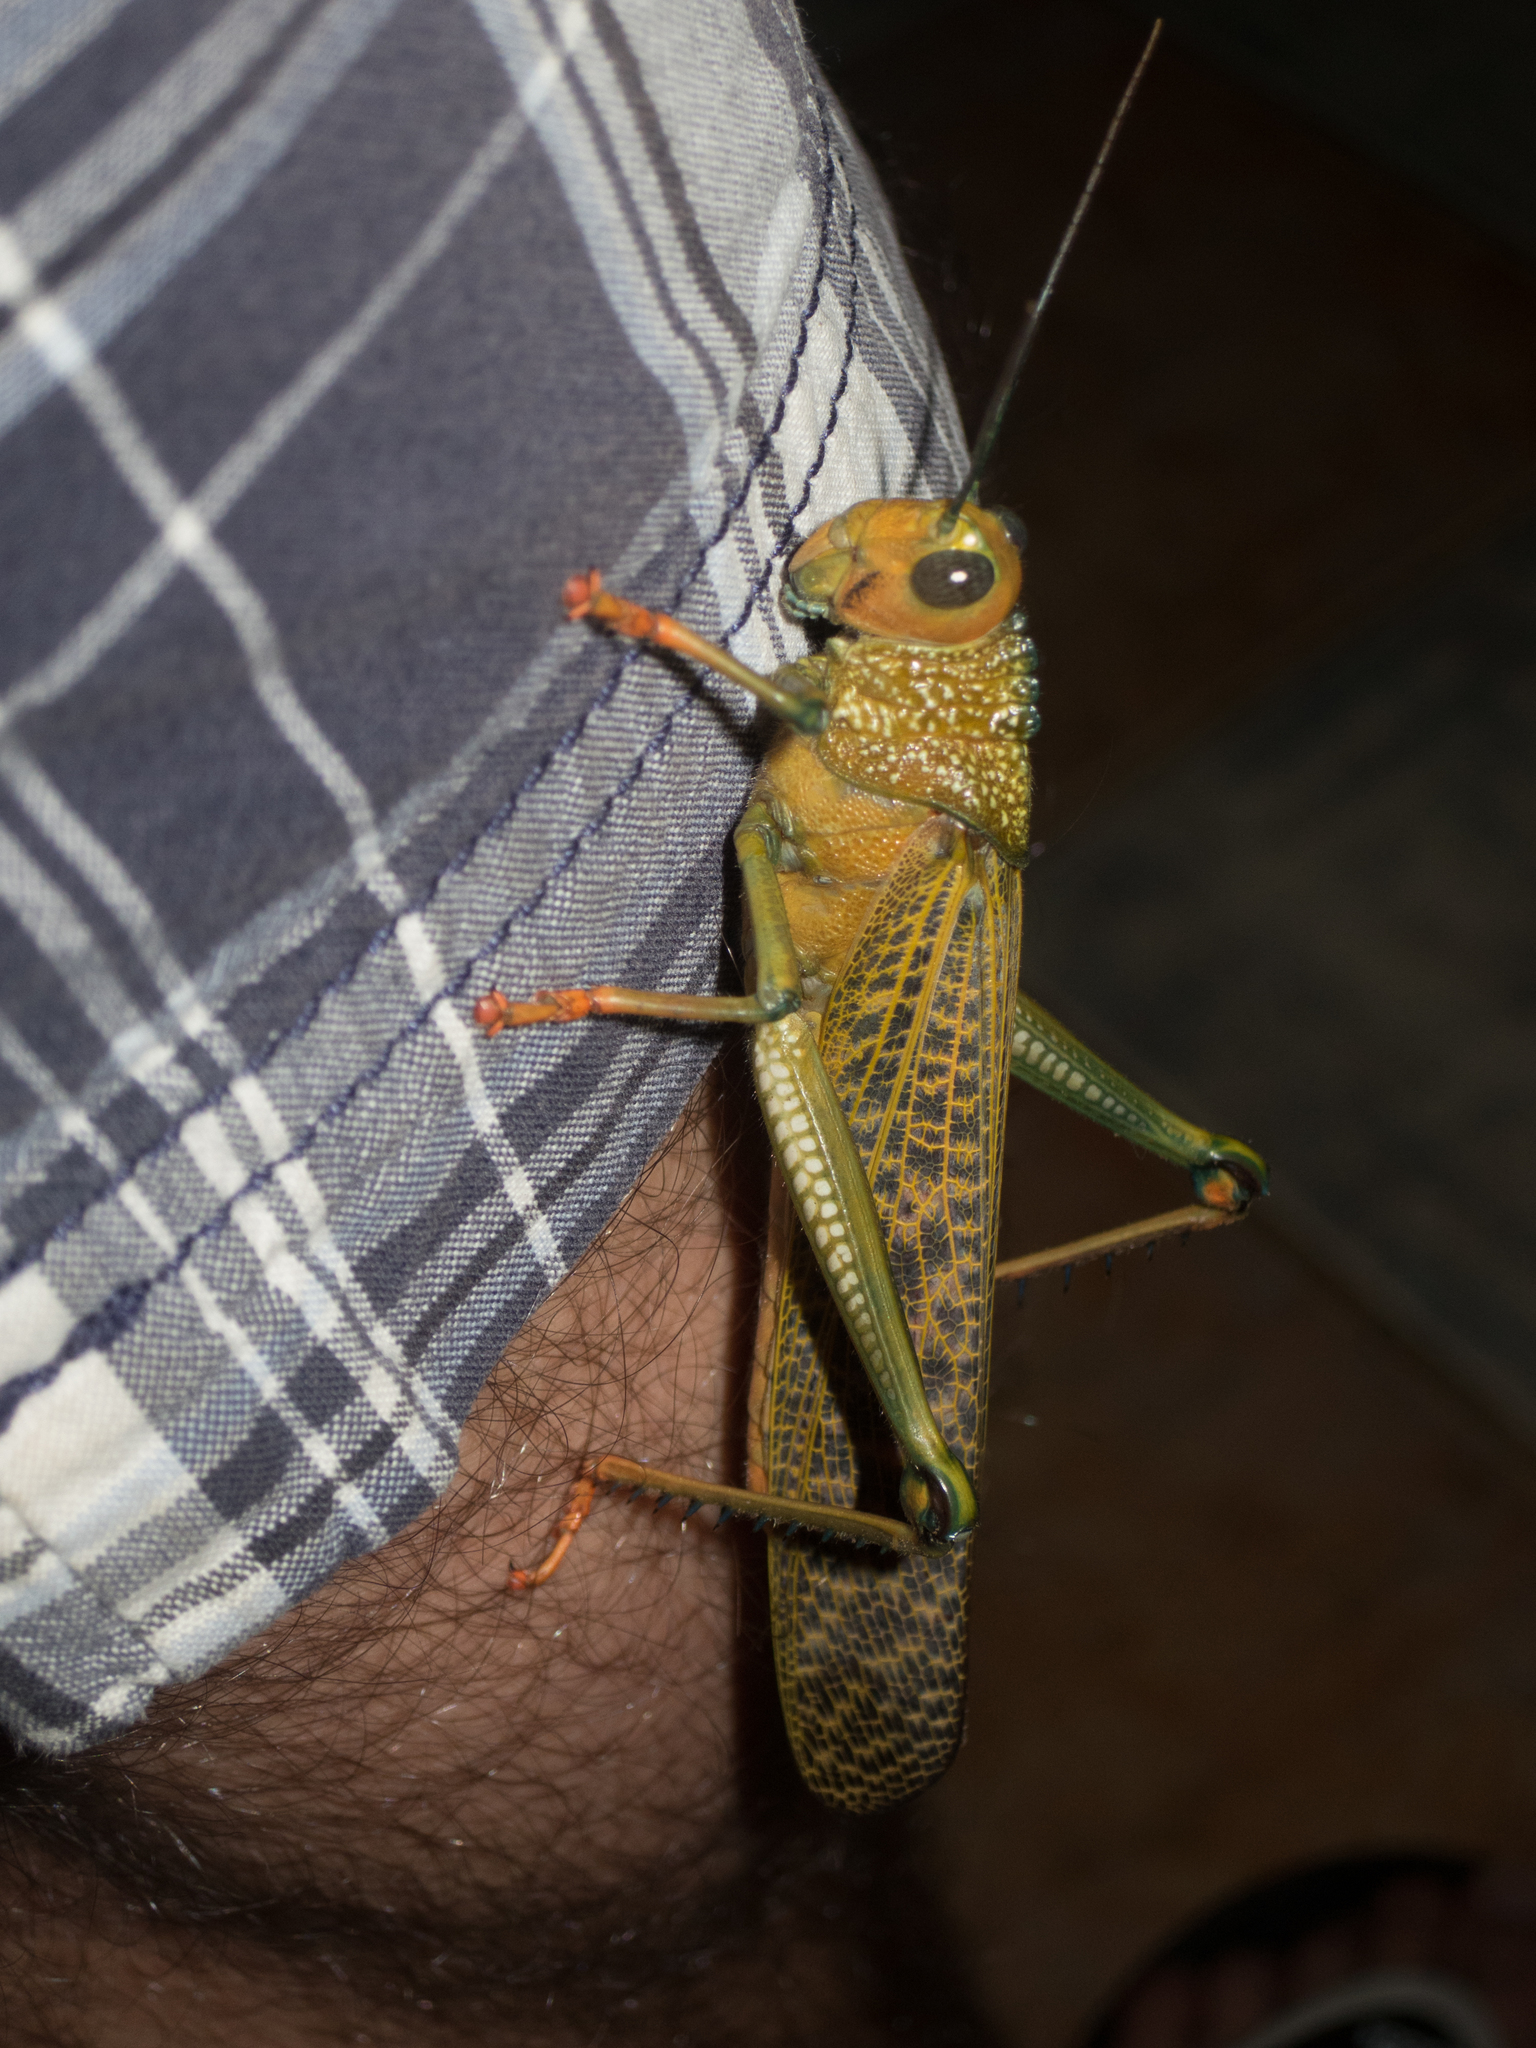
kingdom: Animalia
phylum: Arthropoda
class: Insecta
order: Orthoptera
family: Romaleidae
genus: Tropidacris
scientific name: Tropidacris cristata
